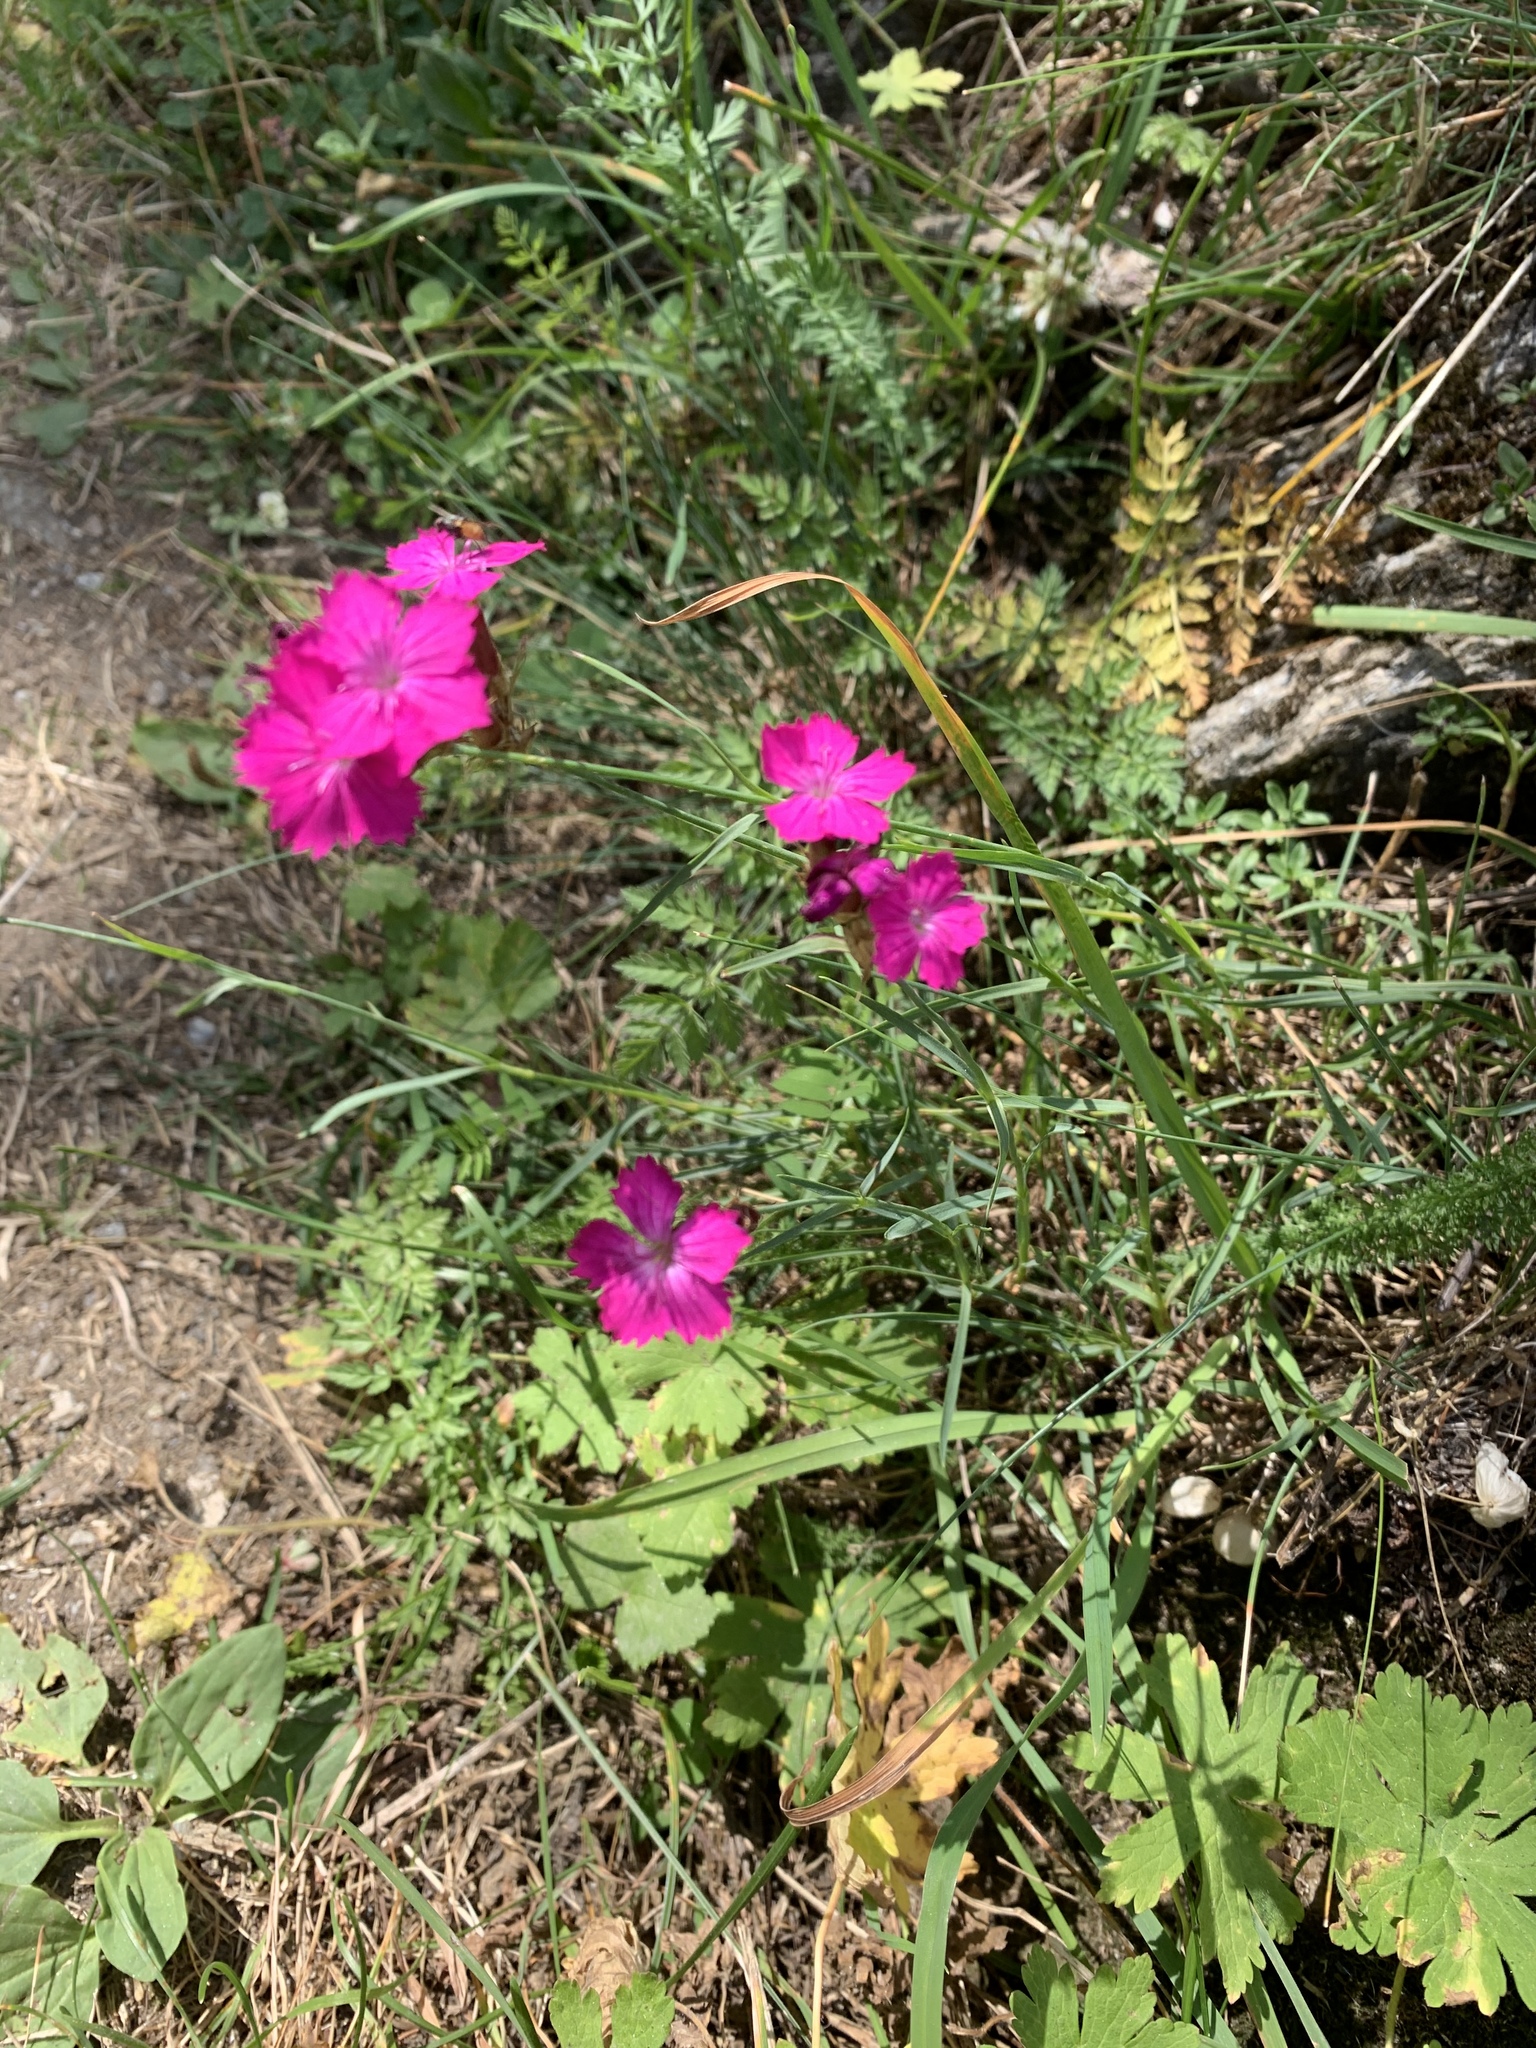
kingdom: Plantae
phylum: Tracheophyta
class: Magnoliopsida
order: Caryophyllales
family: Caryophyllaceae
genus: Dianthus
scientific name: Dianthus carthusianorum
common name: Carthusian pink
